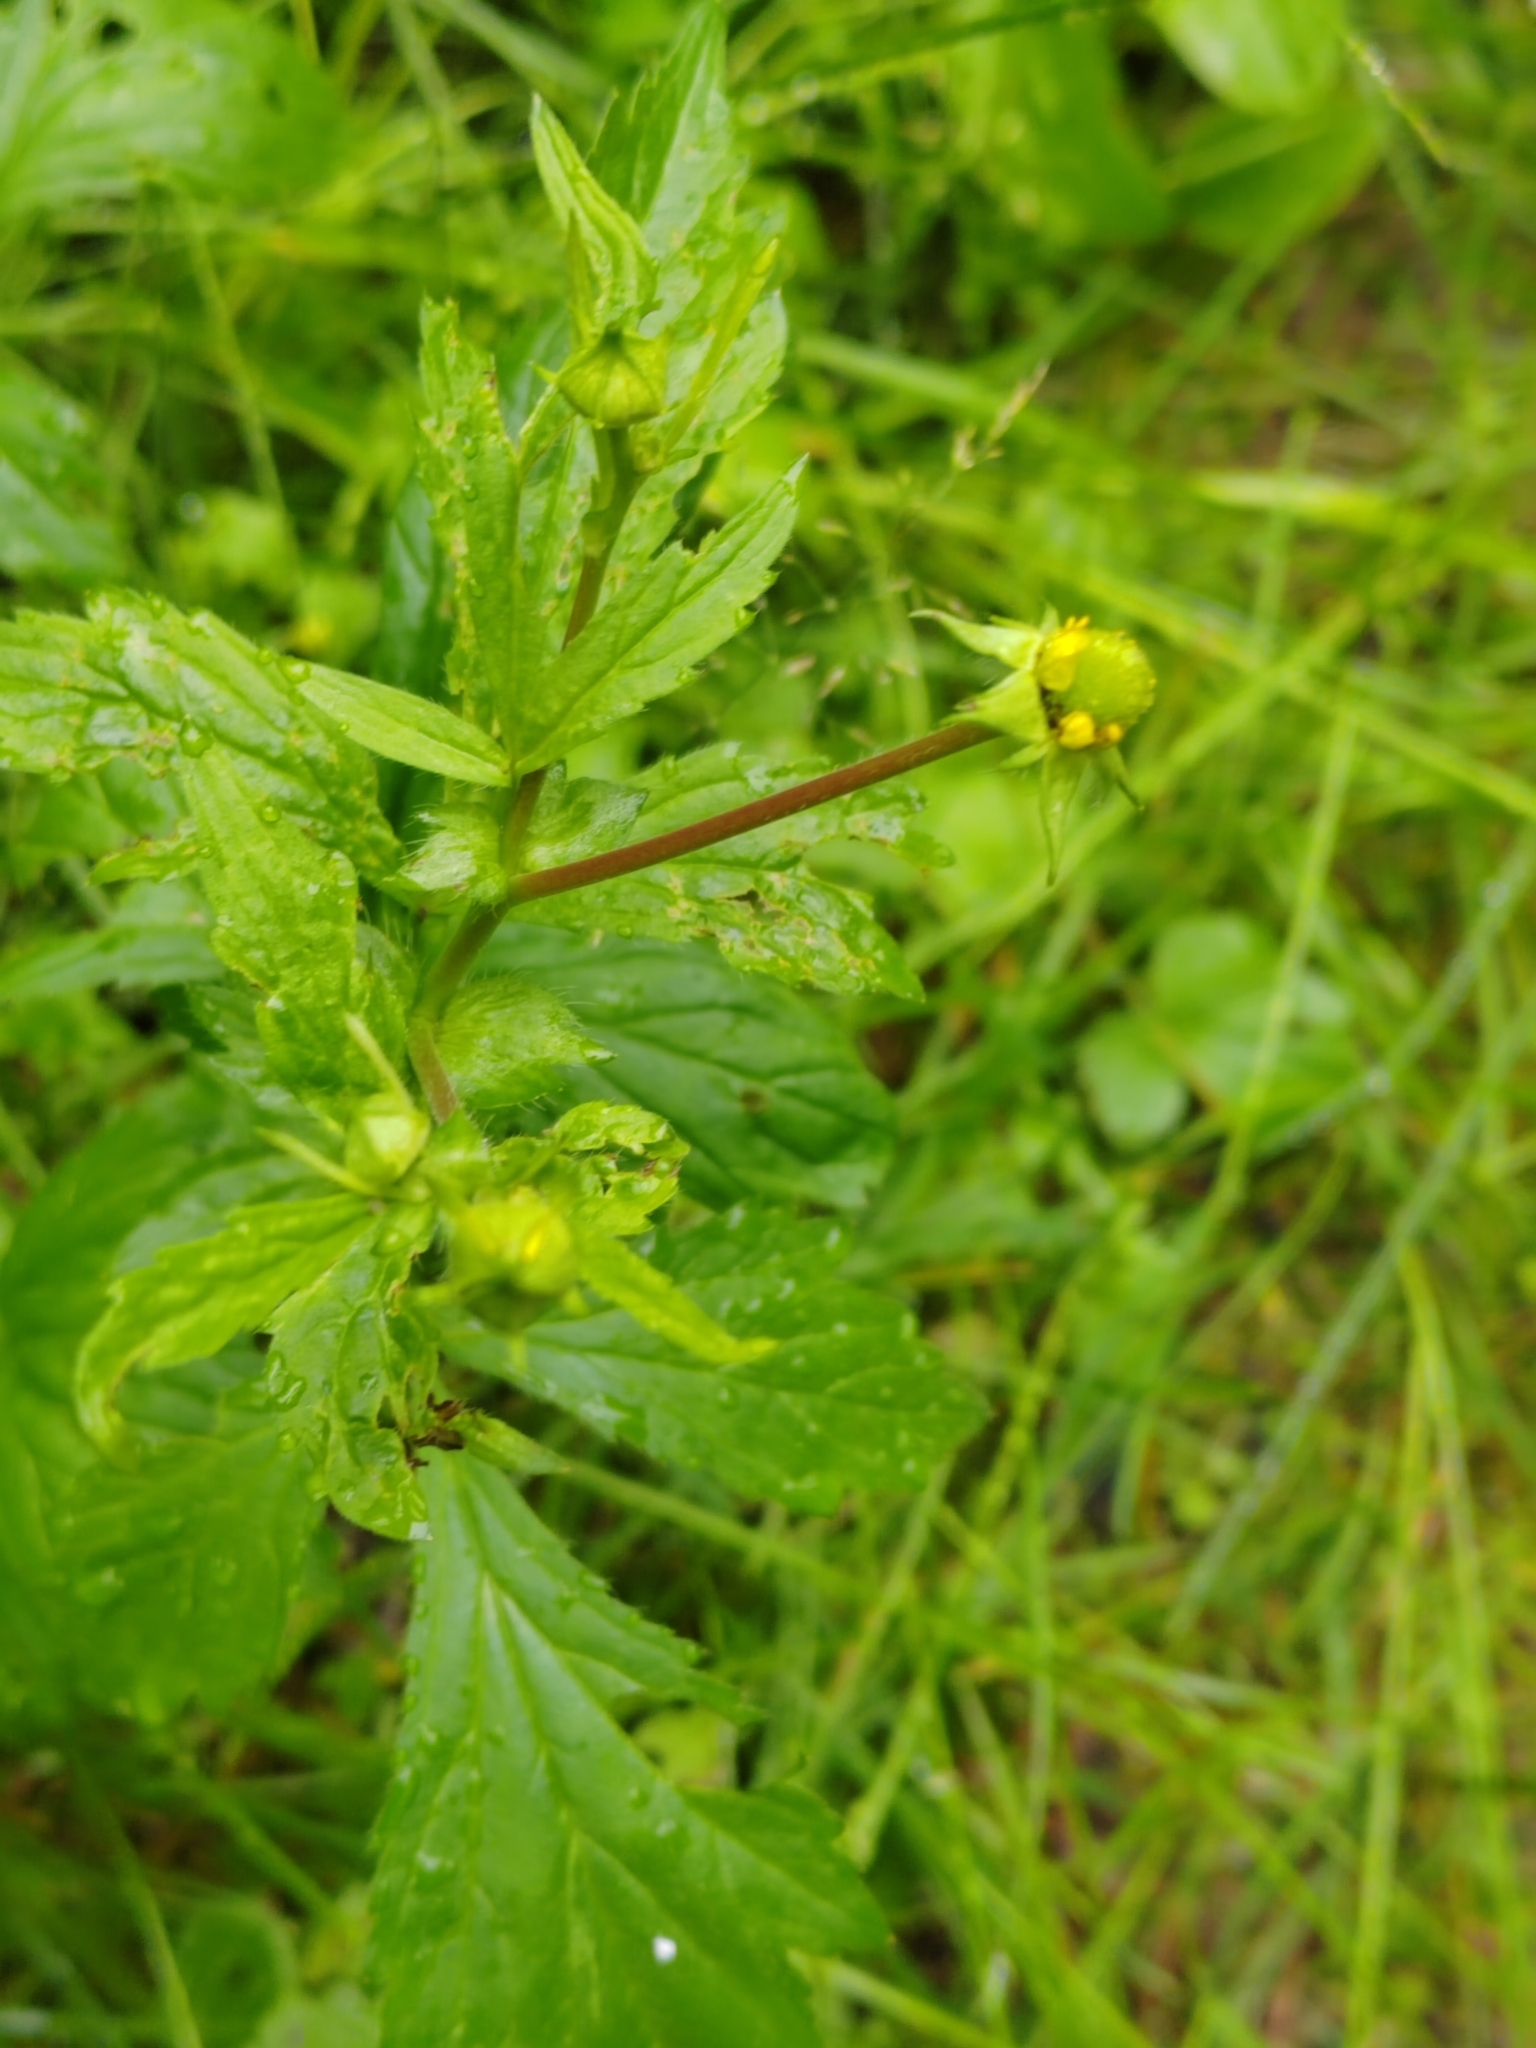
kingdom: Plantae
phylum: Tracheophyta
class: Magnoliopsida
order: Rosales
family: Rosaceae
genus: Geum
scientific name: Geum aleppicum
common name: Yellow avens
